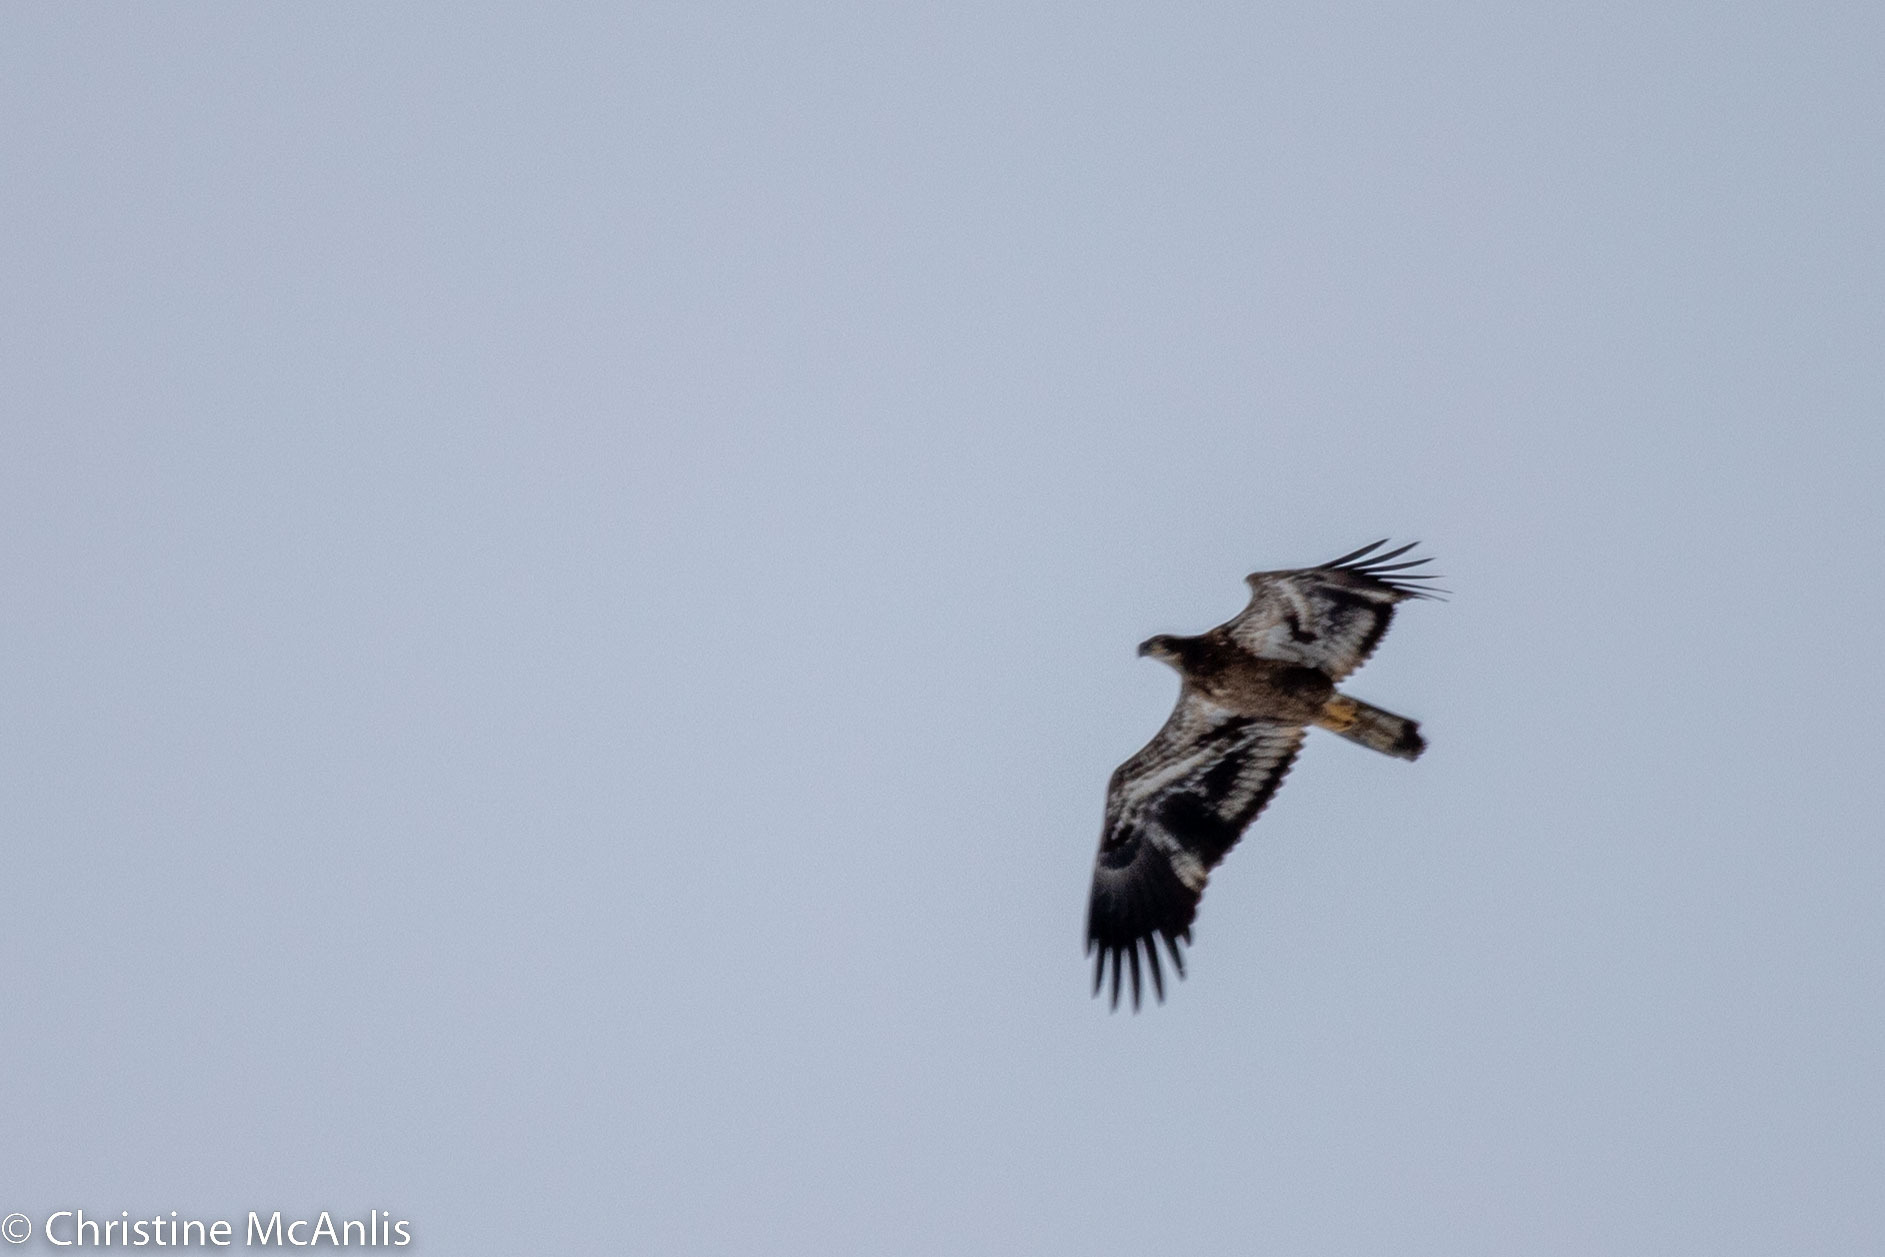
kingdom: Animalia
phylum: Chordata
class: Aves
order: Accipitriformes
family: Accipitridae
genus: Haliaeetus
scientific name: Haliaeetus leucocephalus
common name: Bald eagle
